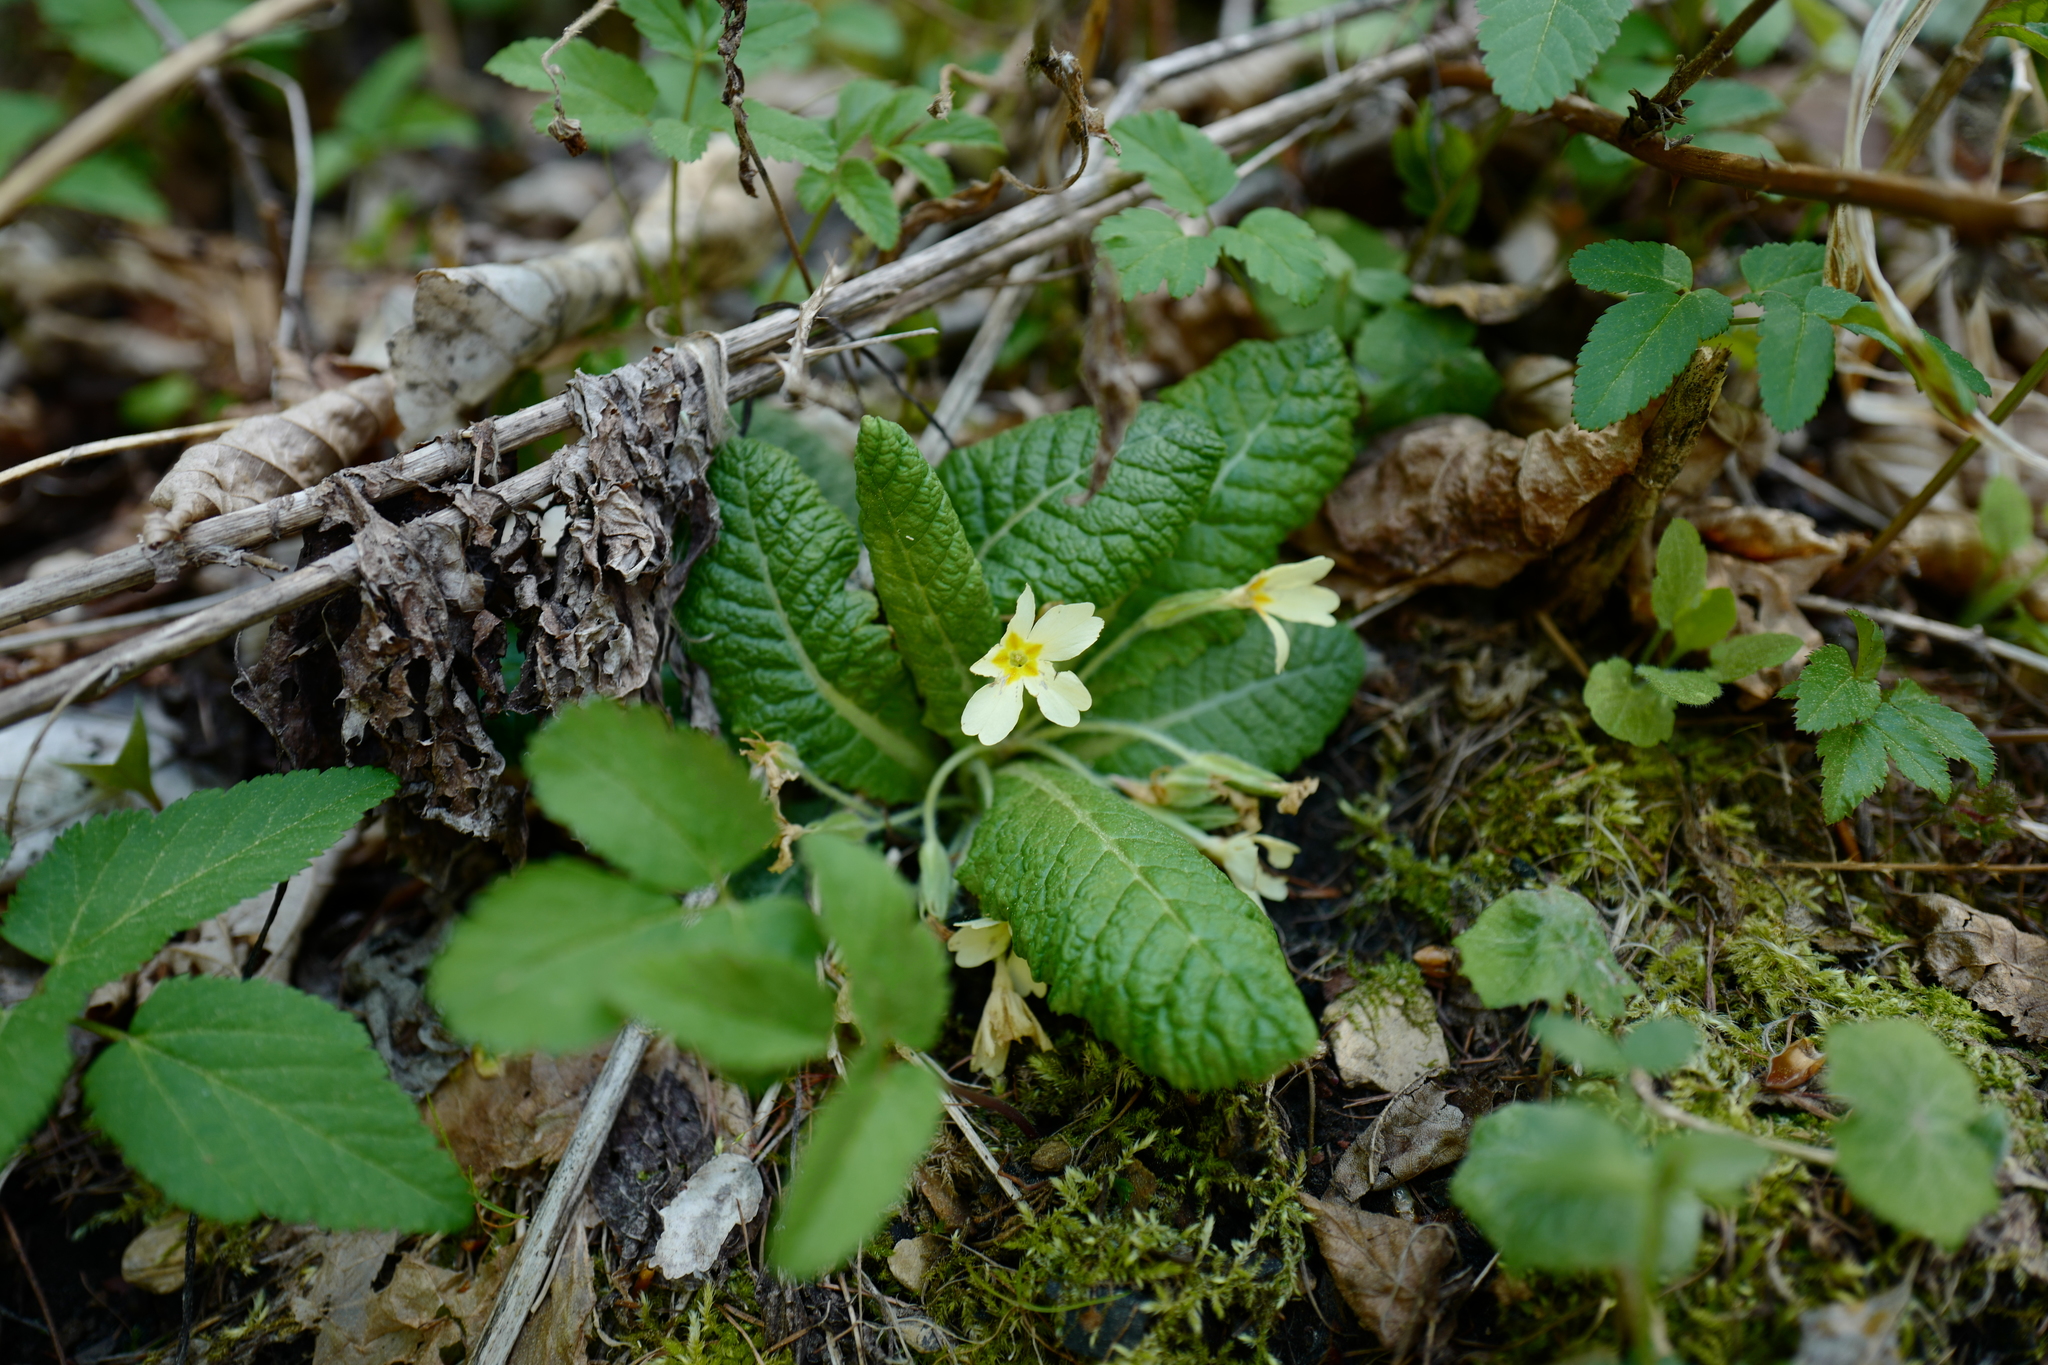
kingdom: Plantae
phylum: Tracheophyta
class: Magnoliopsida
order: Ericales
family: Primulaceae
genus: Primula
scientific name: Primula vulgaris
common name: Primrose
